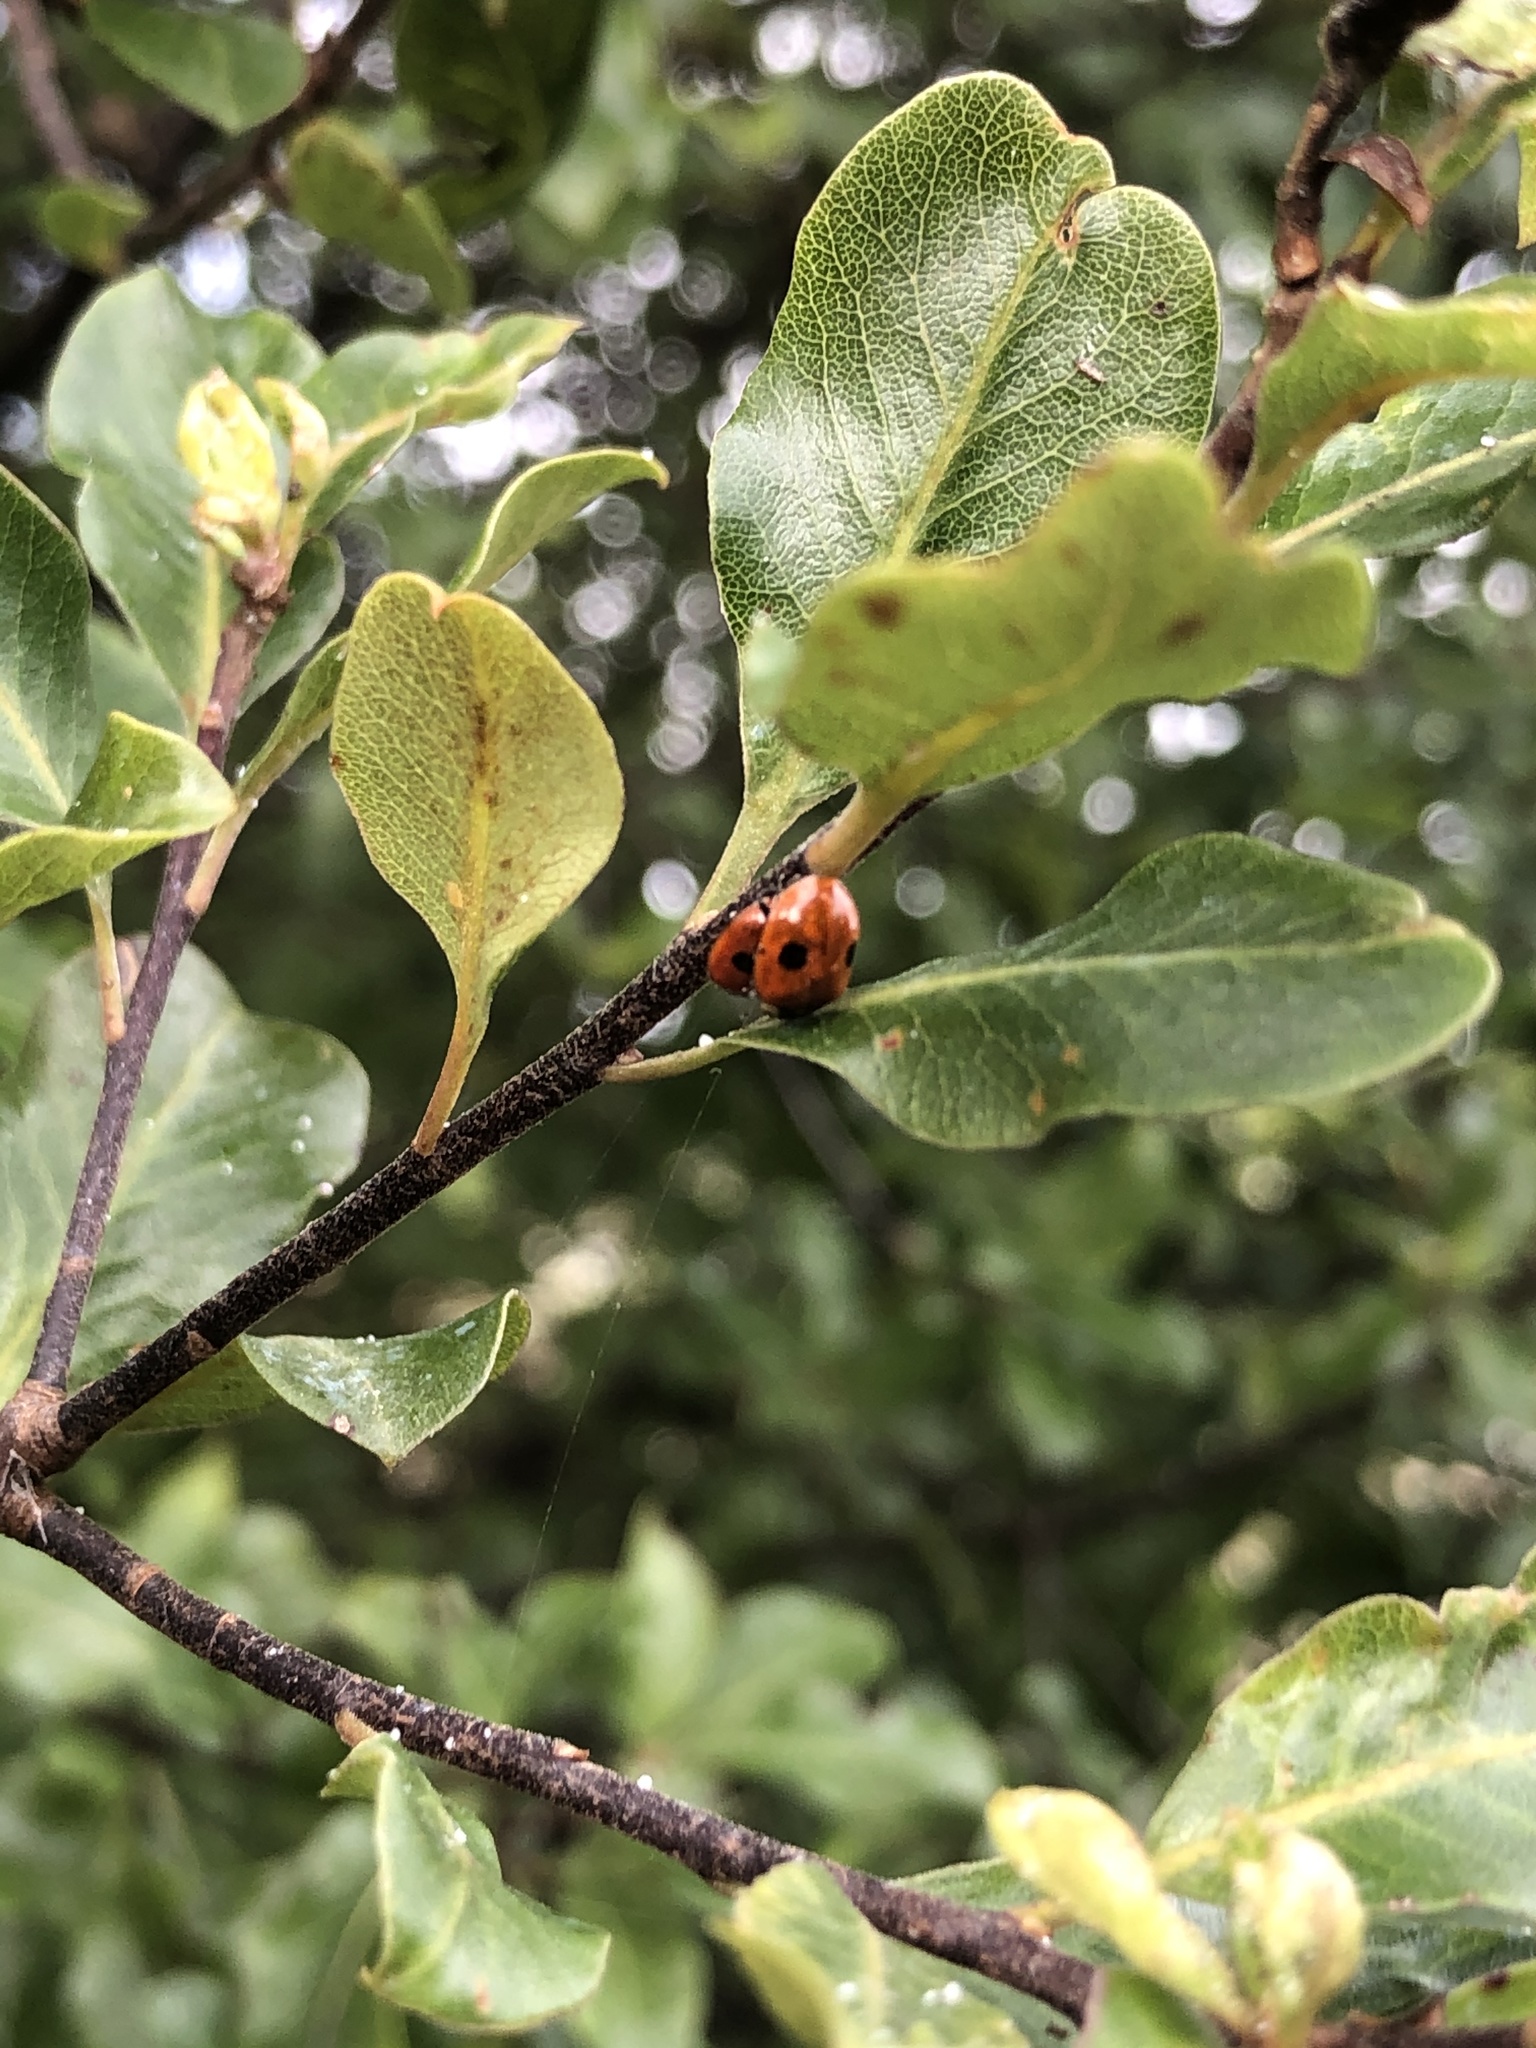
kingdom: Animalia
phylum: Arthropoda
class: Insecta
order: Coleoptera
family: Coccinellidae
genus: Adalia
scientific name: Adalia bipunctata
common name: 2-spot ladybird
